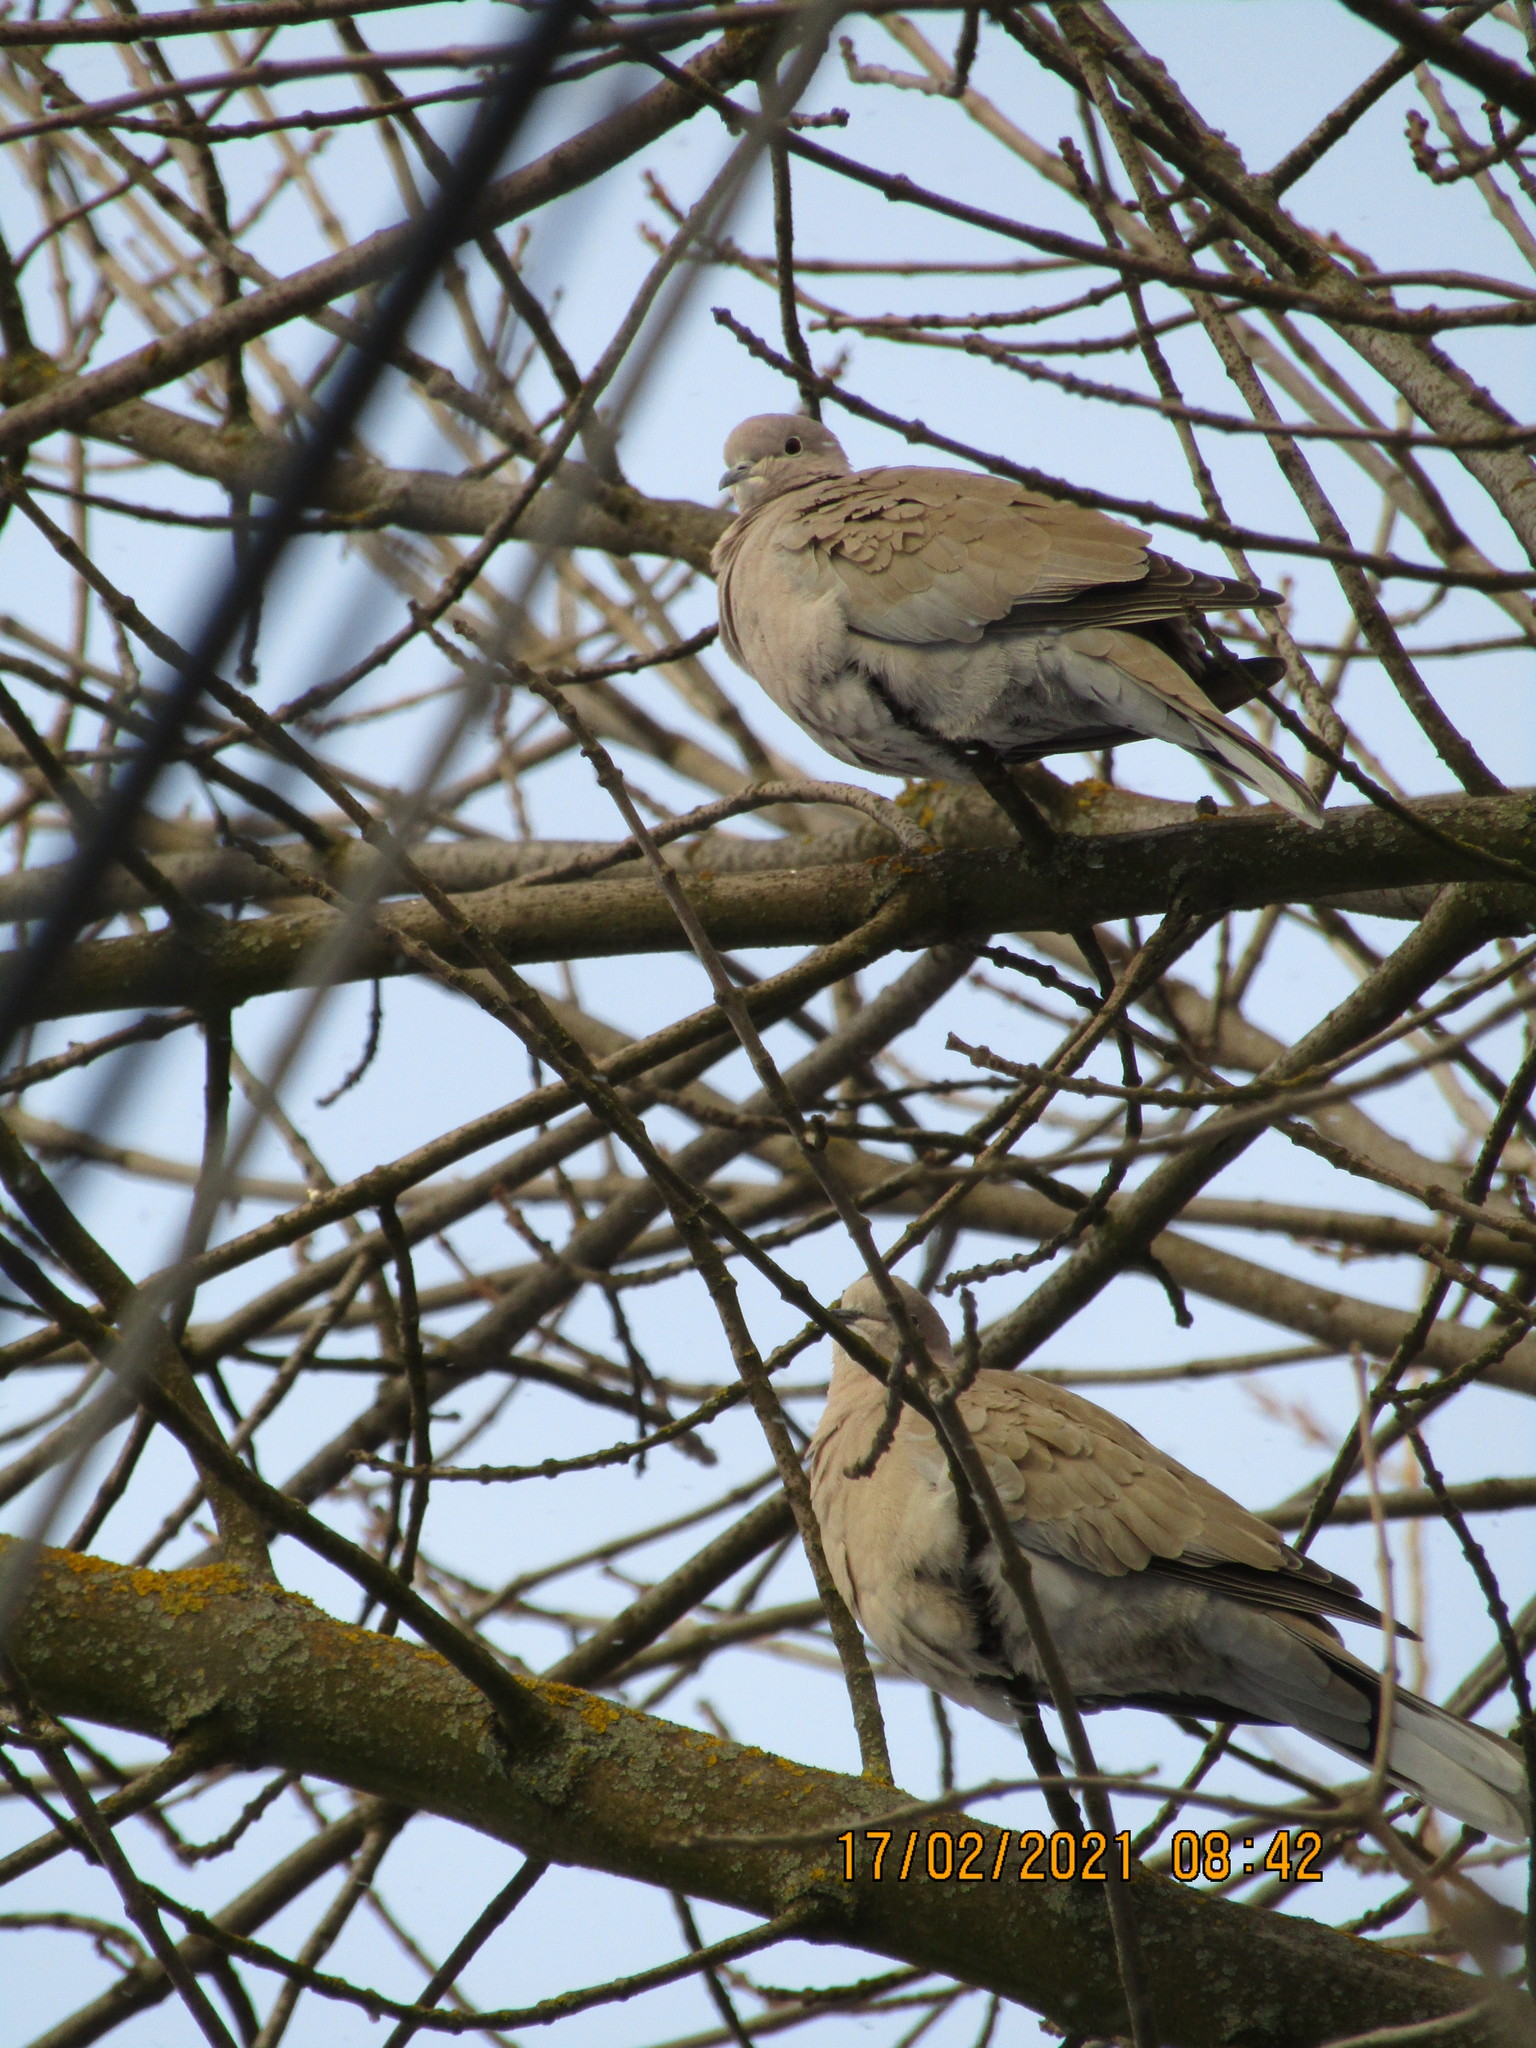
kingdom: Animalia
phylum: Chordata
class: Aves
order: Columbiformes
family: Columbidae
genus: Streptopelia
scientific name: Streptopelia decaocto
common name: Eurasian collared dove
